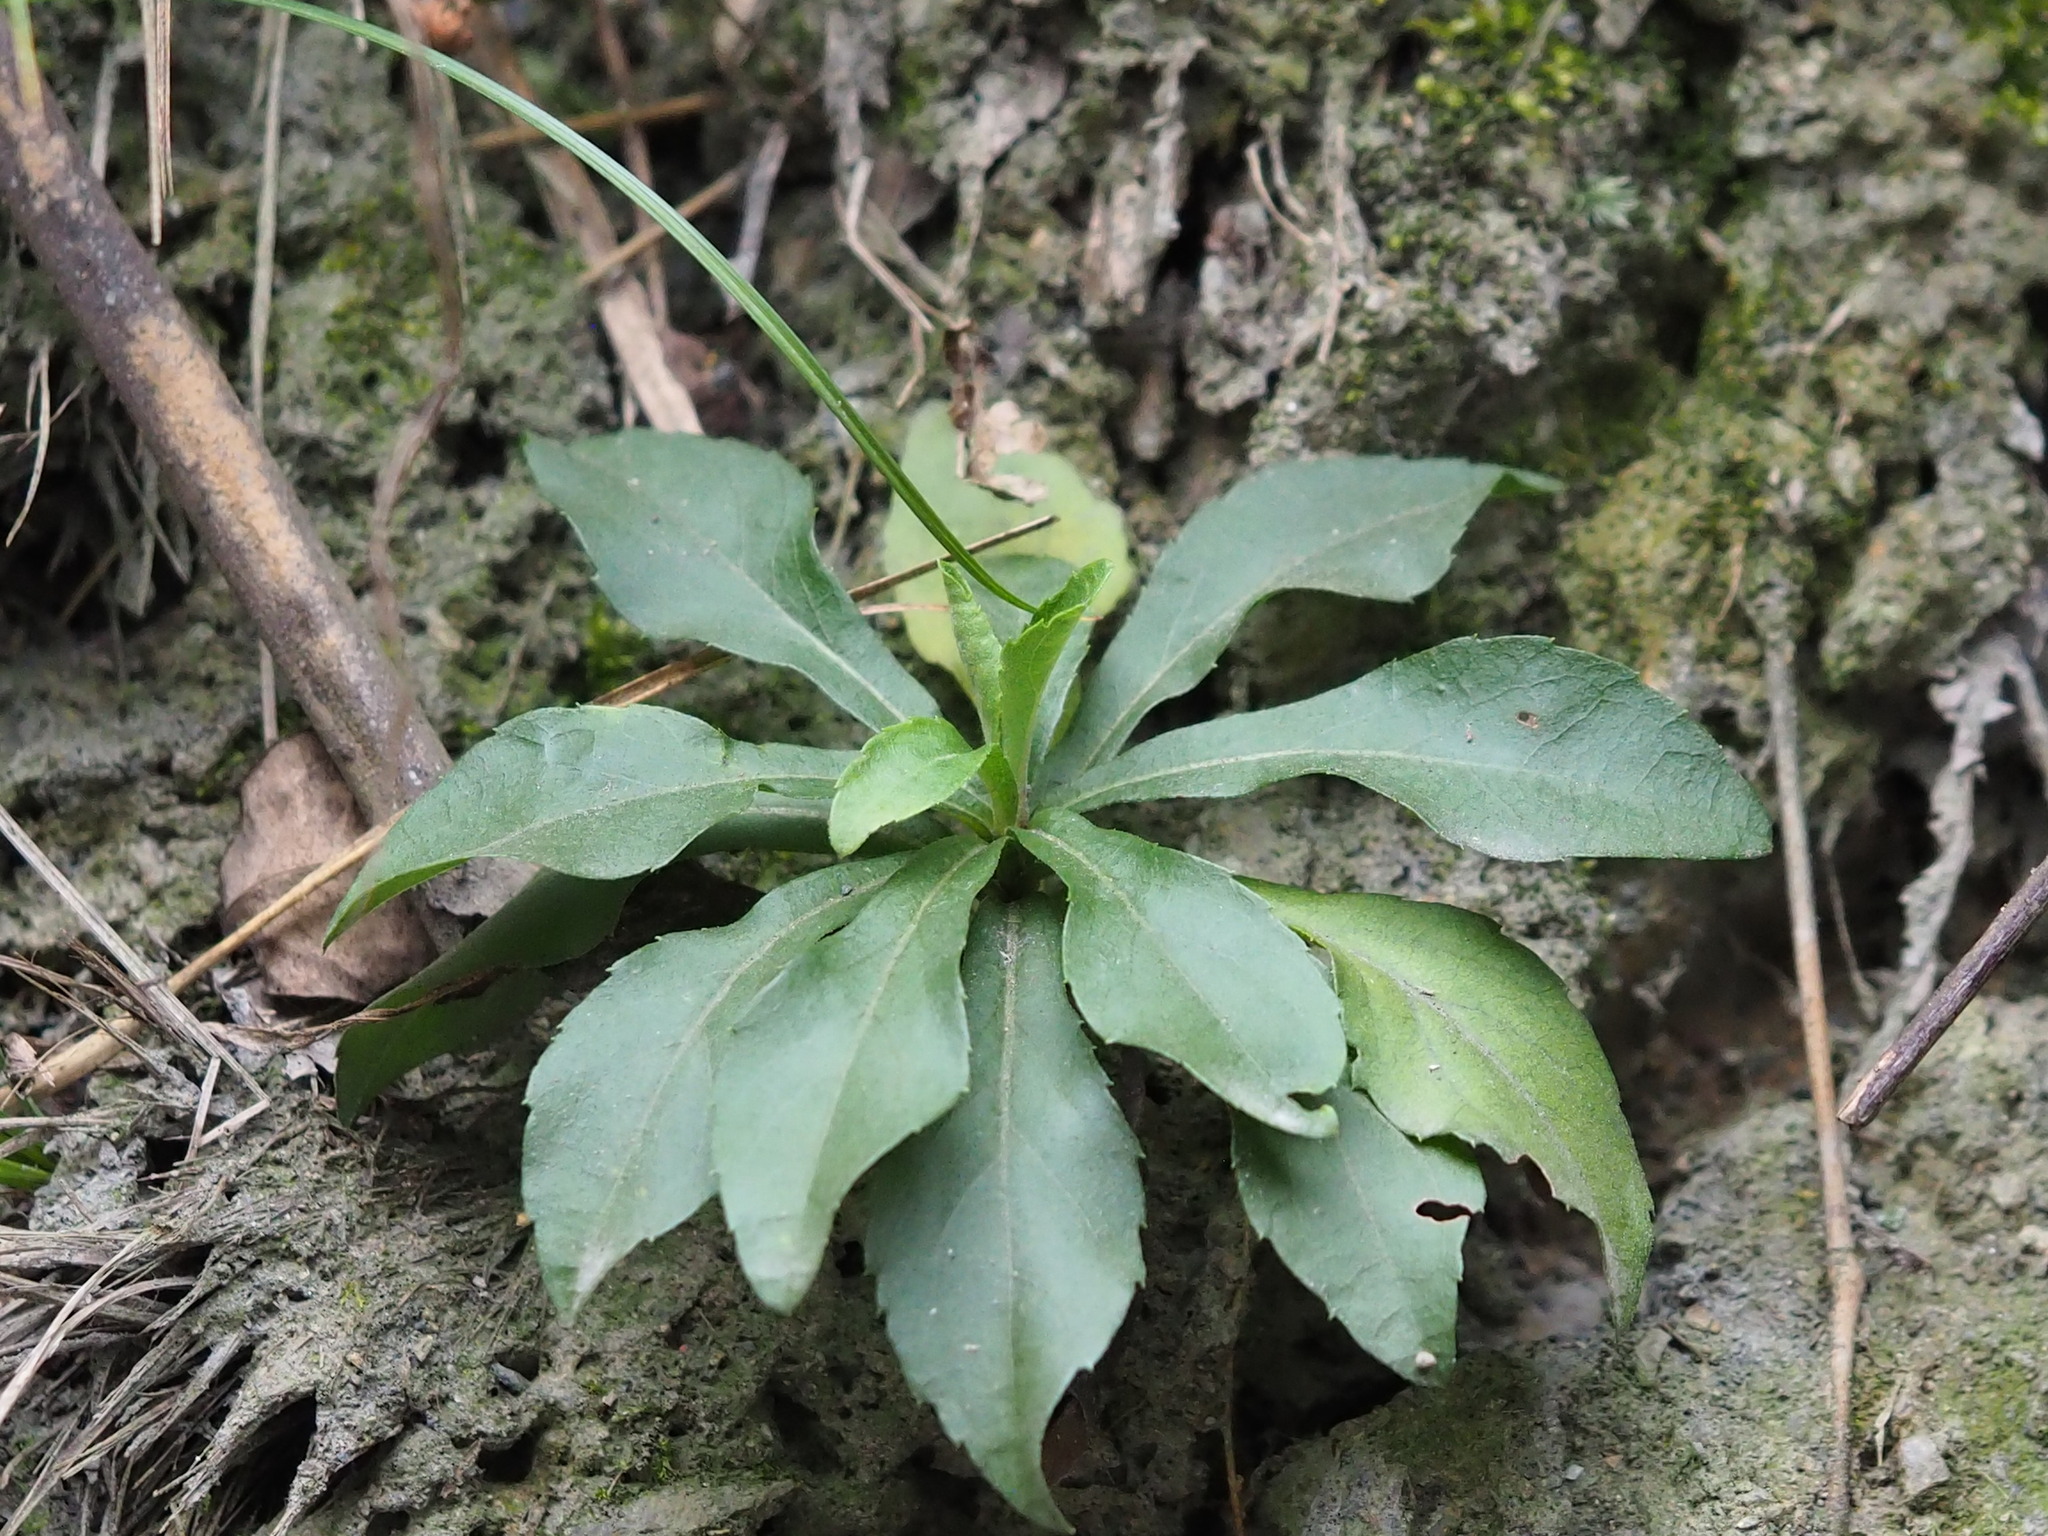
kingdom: Plantae
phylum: Tracheophyta
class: Magnoliopsida
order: Asterales
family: Asteraceae
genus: Aster
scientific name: Aster taiwanensis
